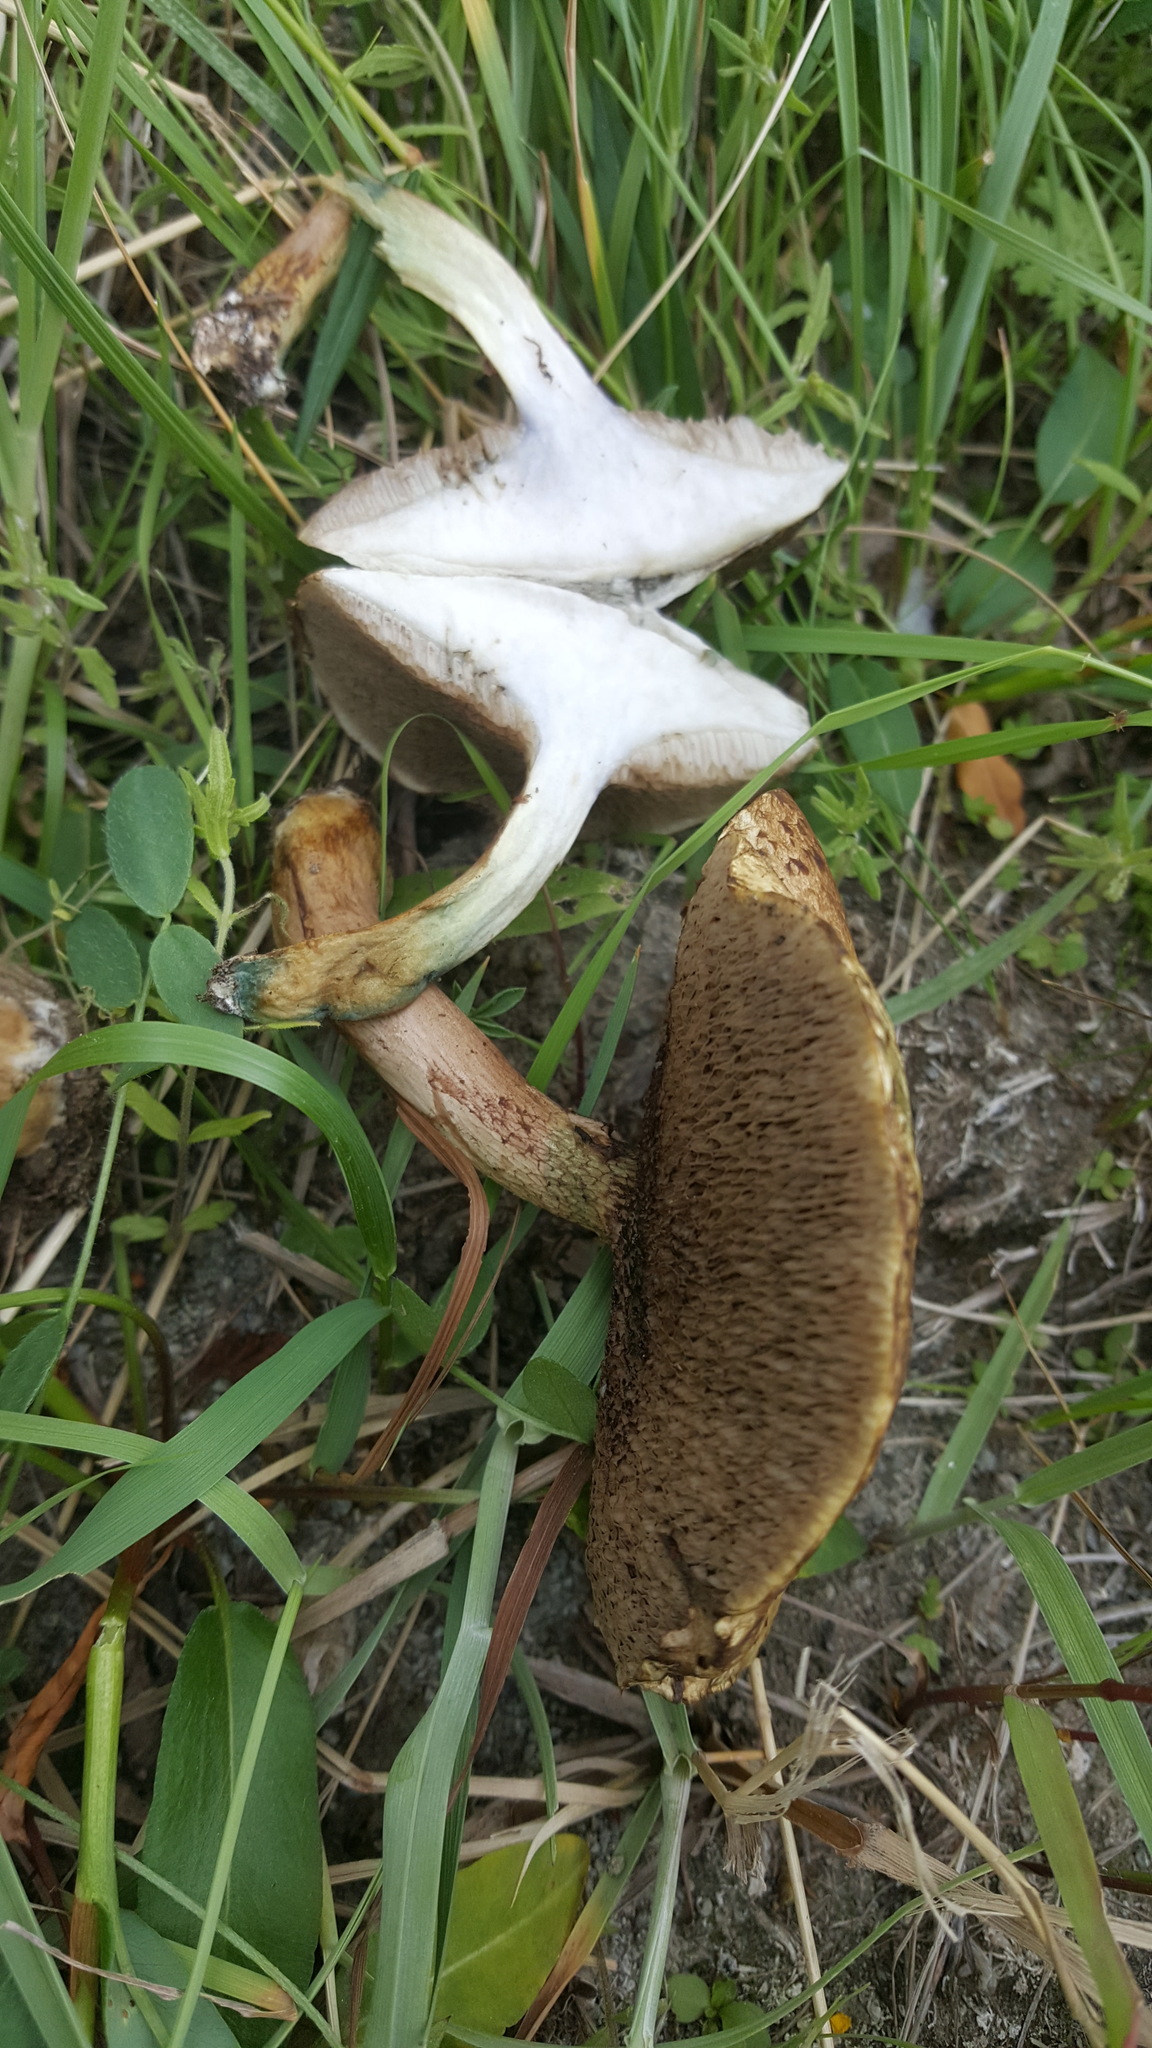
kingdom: Fungi
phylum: Basidiomycota
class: Agaricomycetes
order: Boletales
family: Suillaceae
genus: Suillus
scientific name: Suillus viscidus
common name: Sticky bolete
